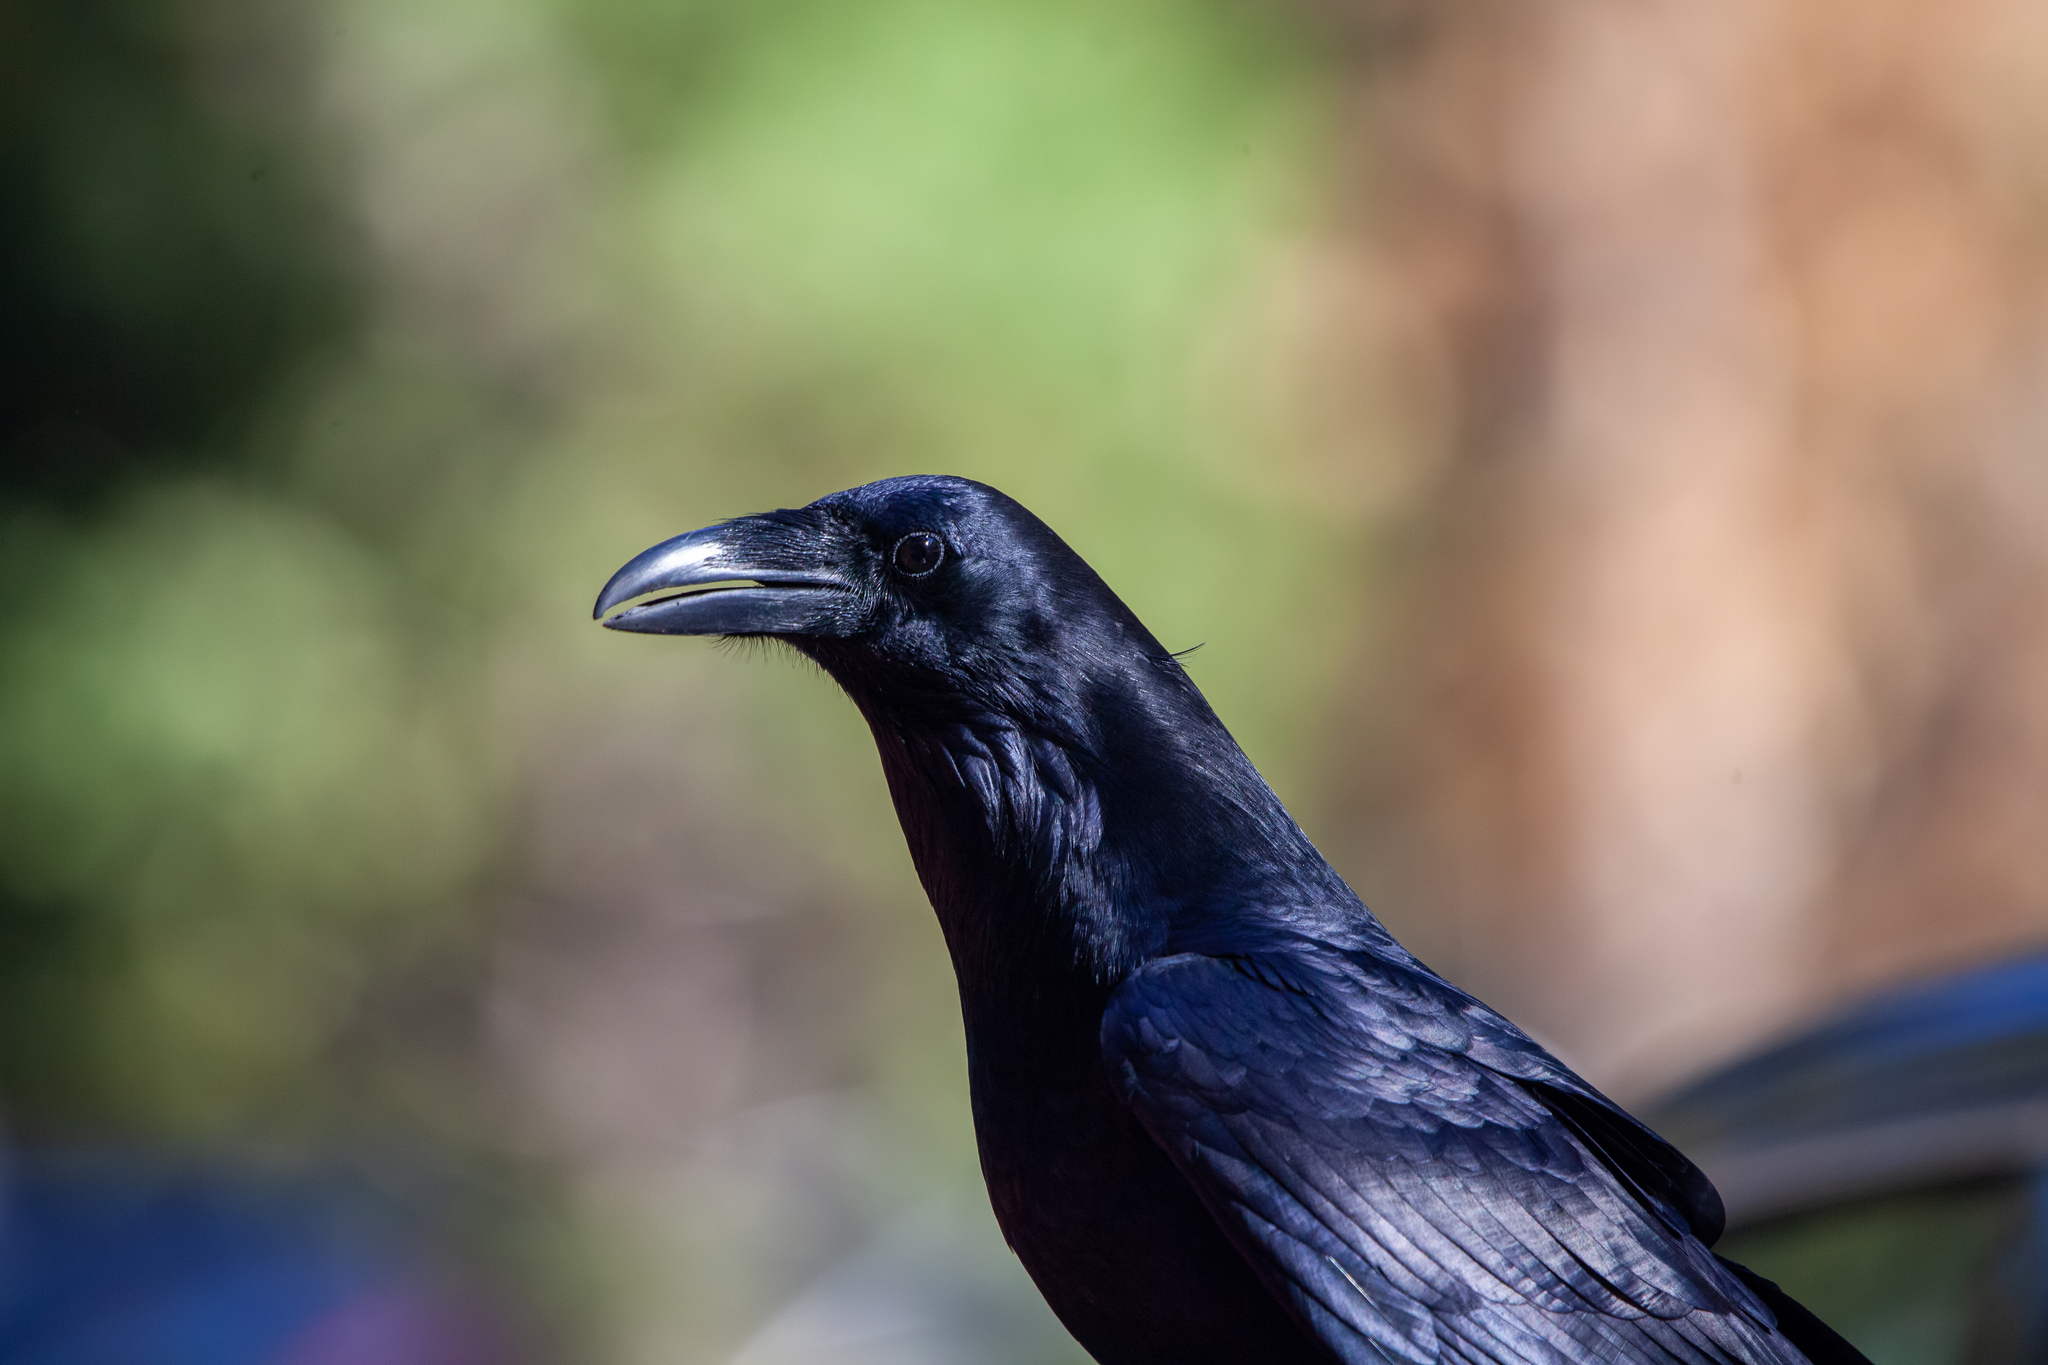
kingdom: Animalia
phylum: Chordata
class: Aves
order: Passeriformes
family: Corvidae
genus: Corvus
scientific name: Corvus corax
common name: Common raven
